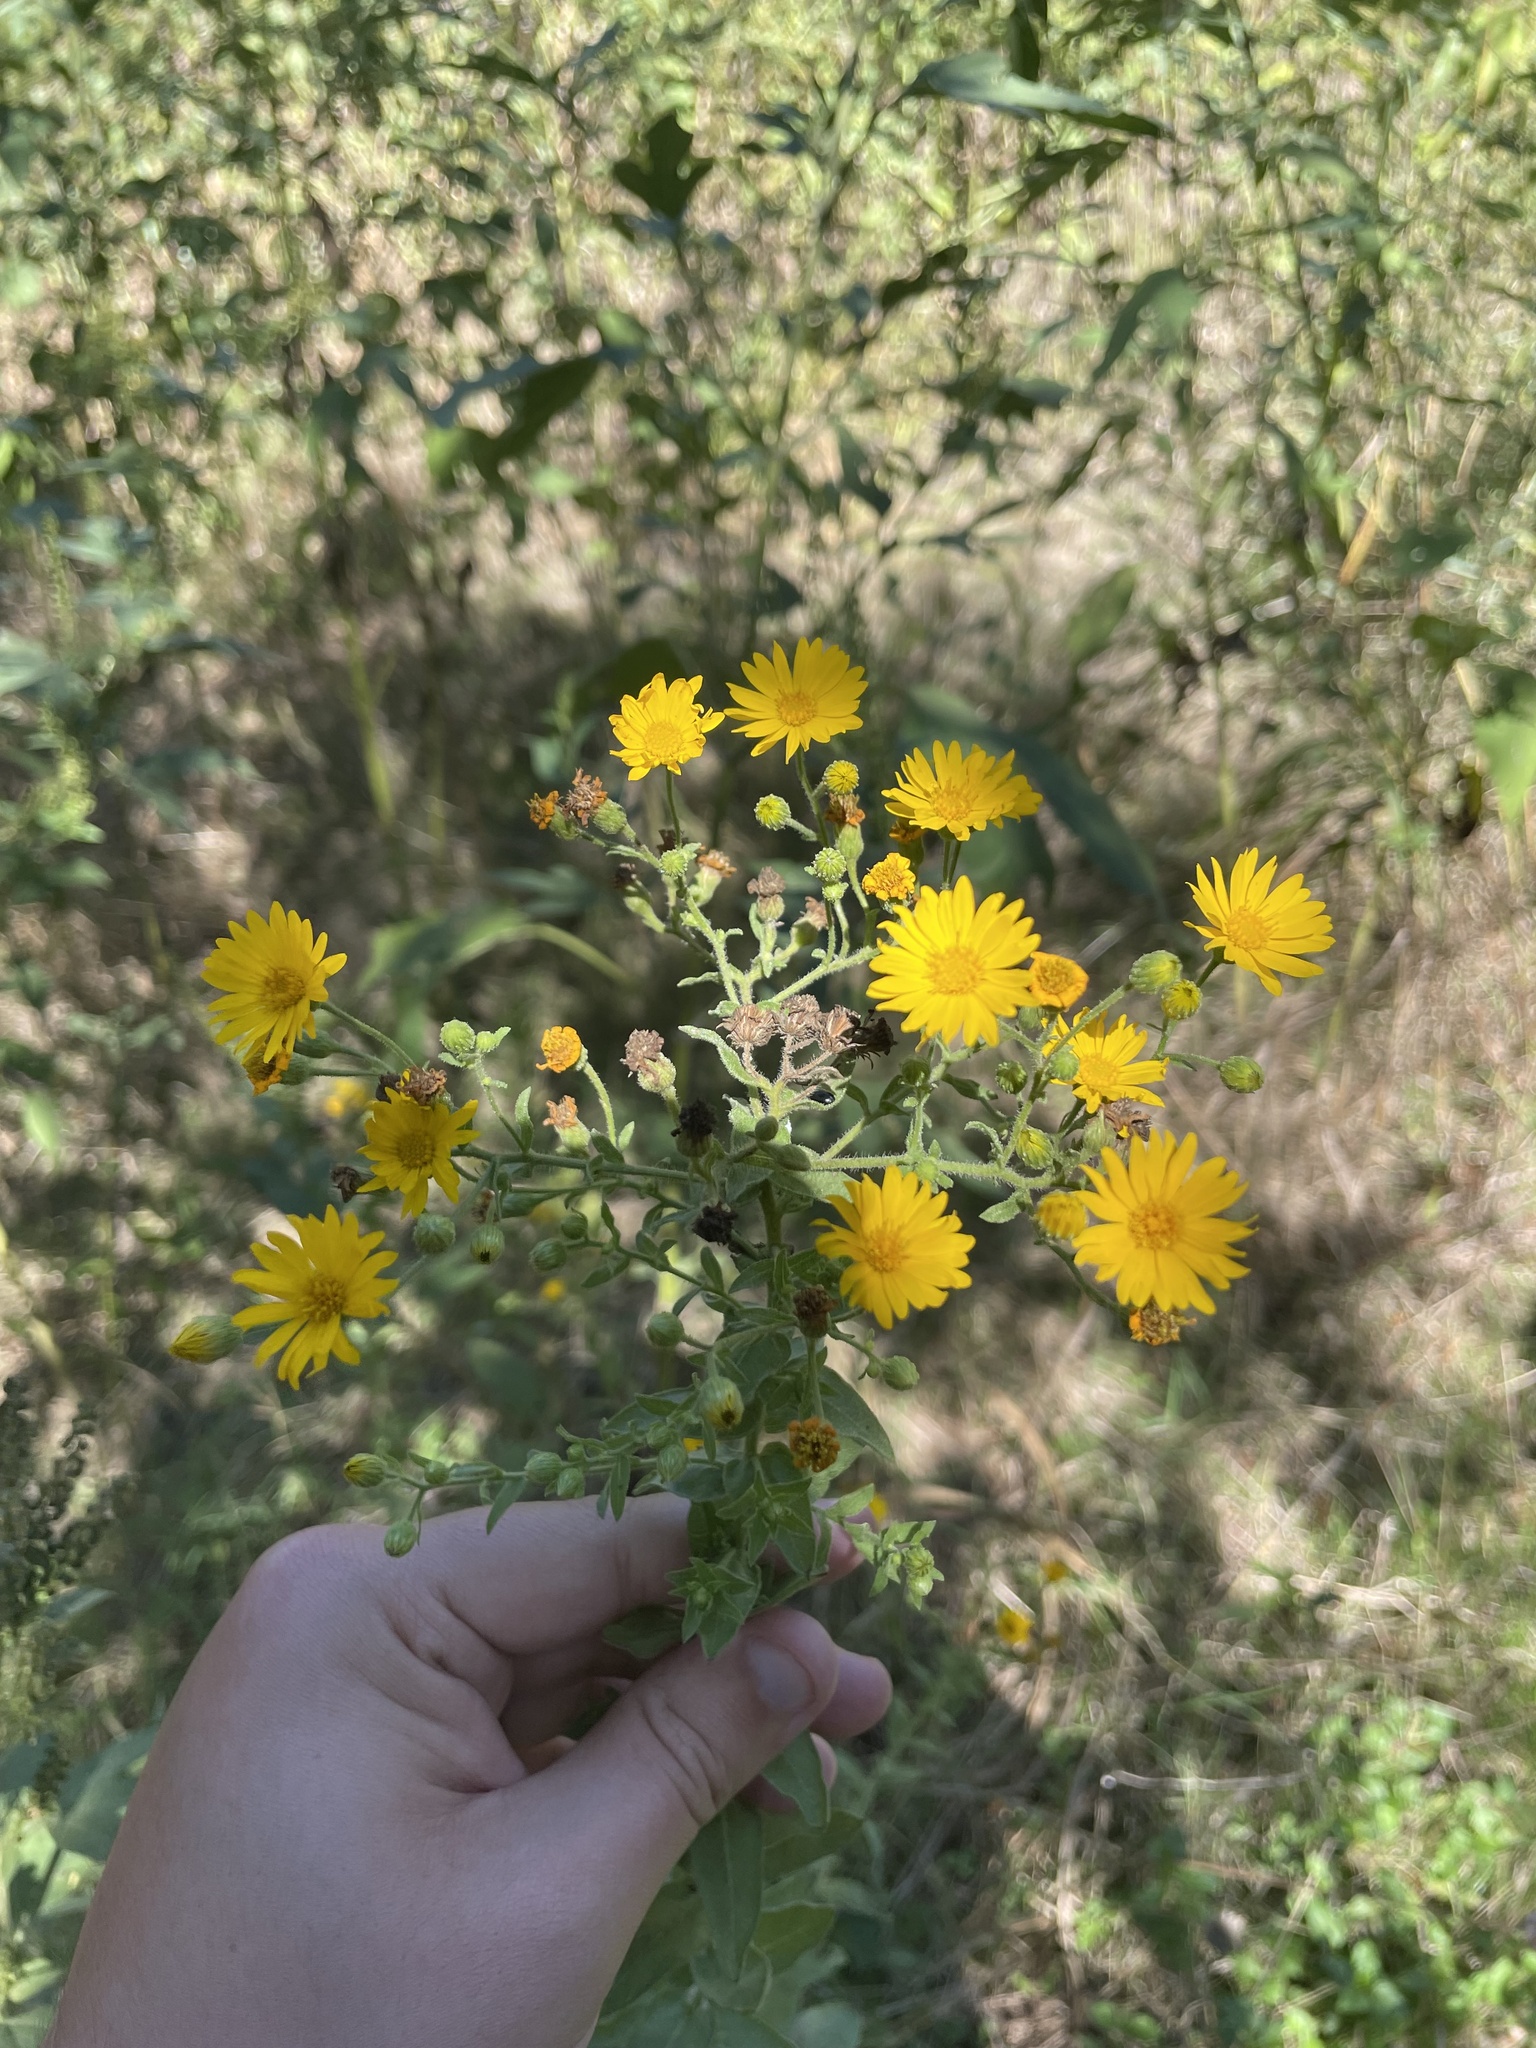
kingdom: Plantae
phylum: Tracheophyta
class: Magnoliopsida
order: Asterales
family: Asteraceae
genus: Heterotheca
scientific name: Heterotheca subaxillaris
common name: Camphorweed
